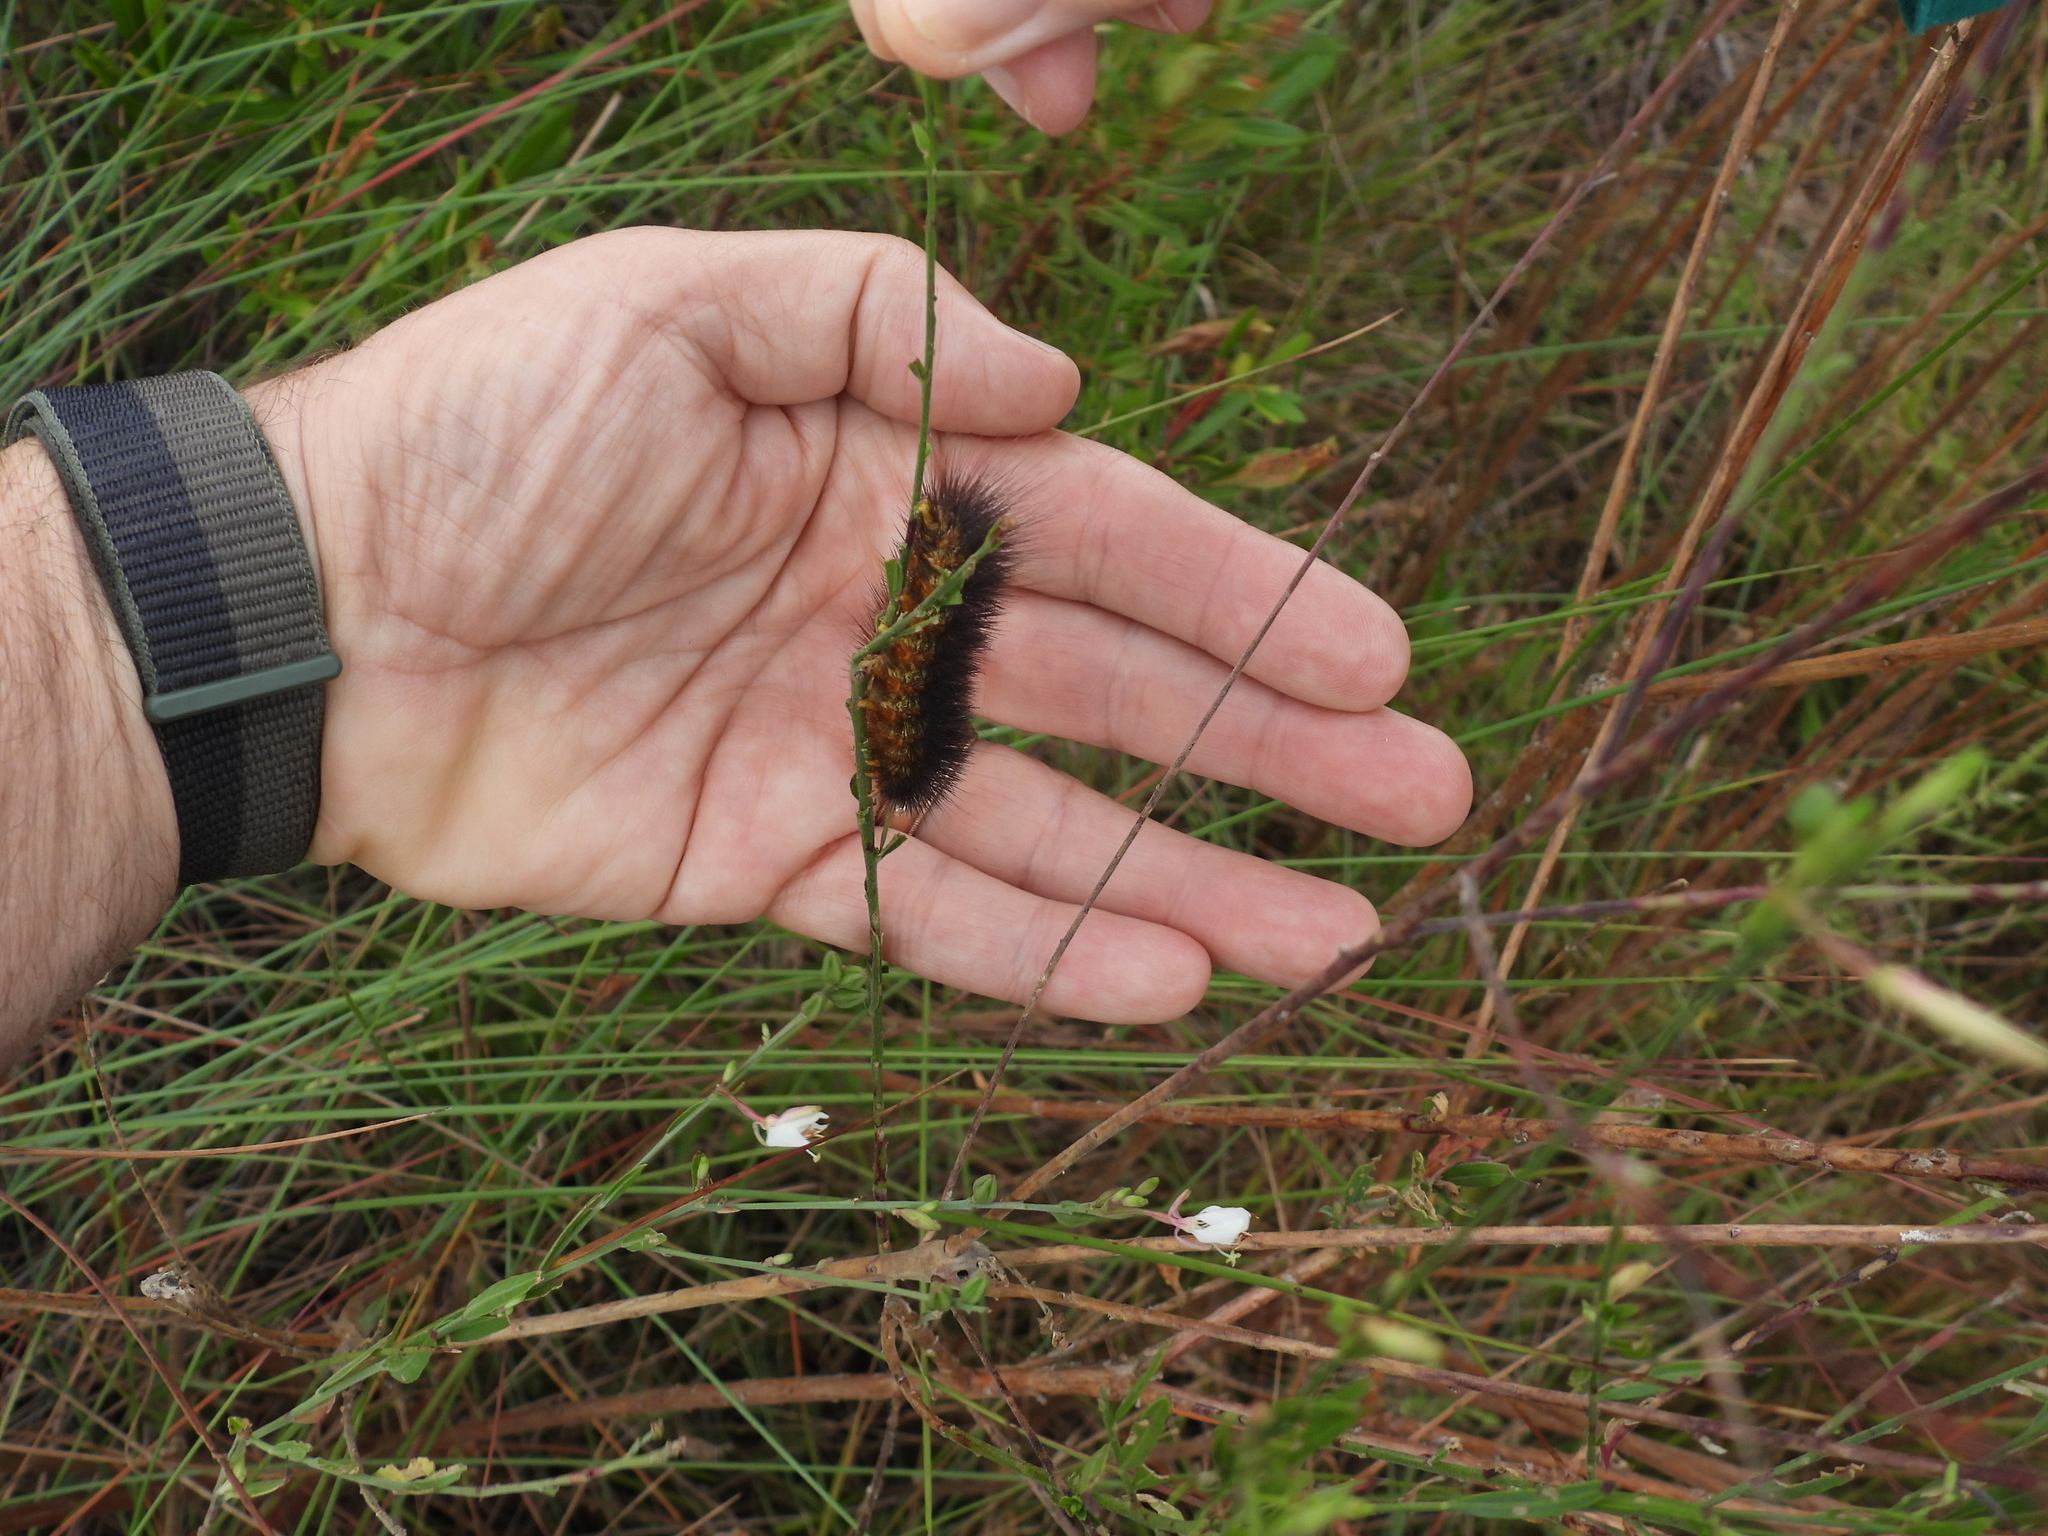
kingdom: Animalia
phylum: Arthropoda
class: Insecta
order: Lepidoptera
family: Erebidae
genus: Estigmene
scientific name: Estigmene acrea
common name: Salt marsh moth
